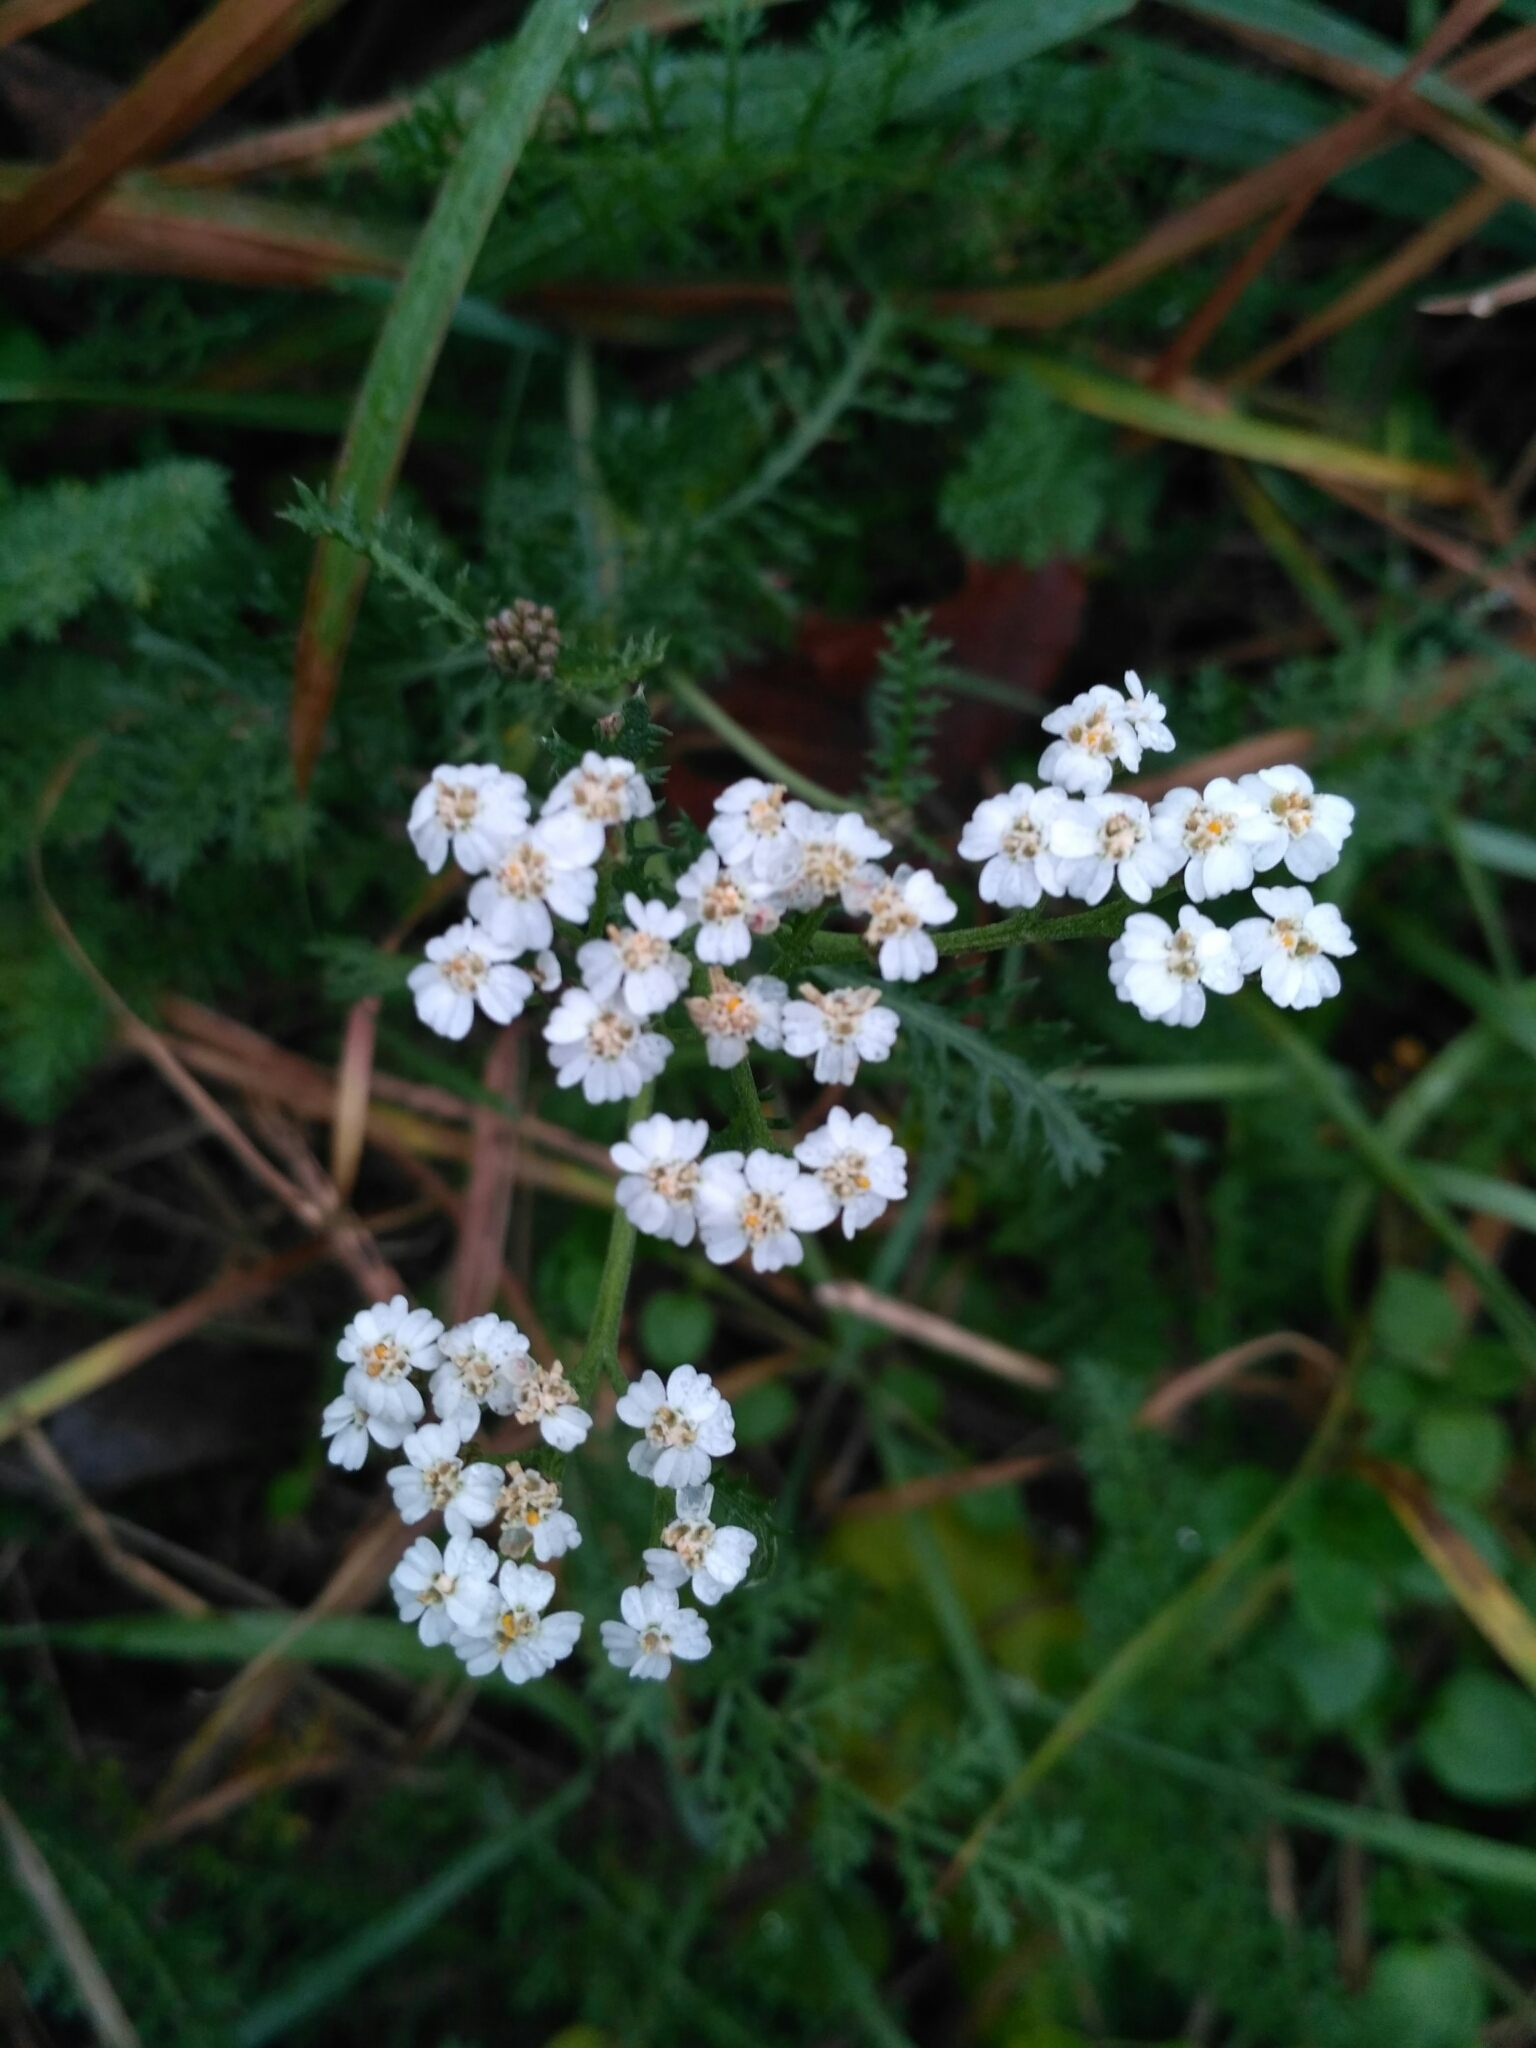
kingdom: Plantae
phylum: Tracheophyta
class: Magnoliopsida
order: Asterales
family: Asteraceae
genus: Achillea
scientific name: Achillea millefolium
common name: Yarrow
